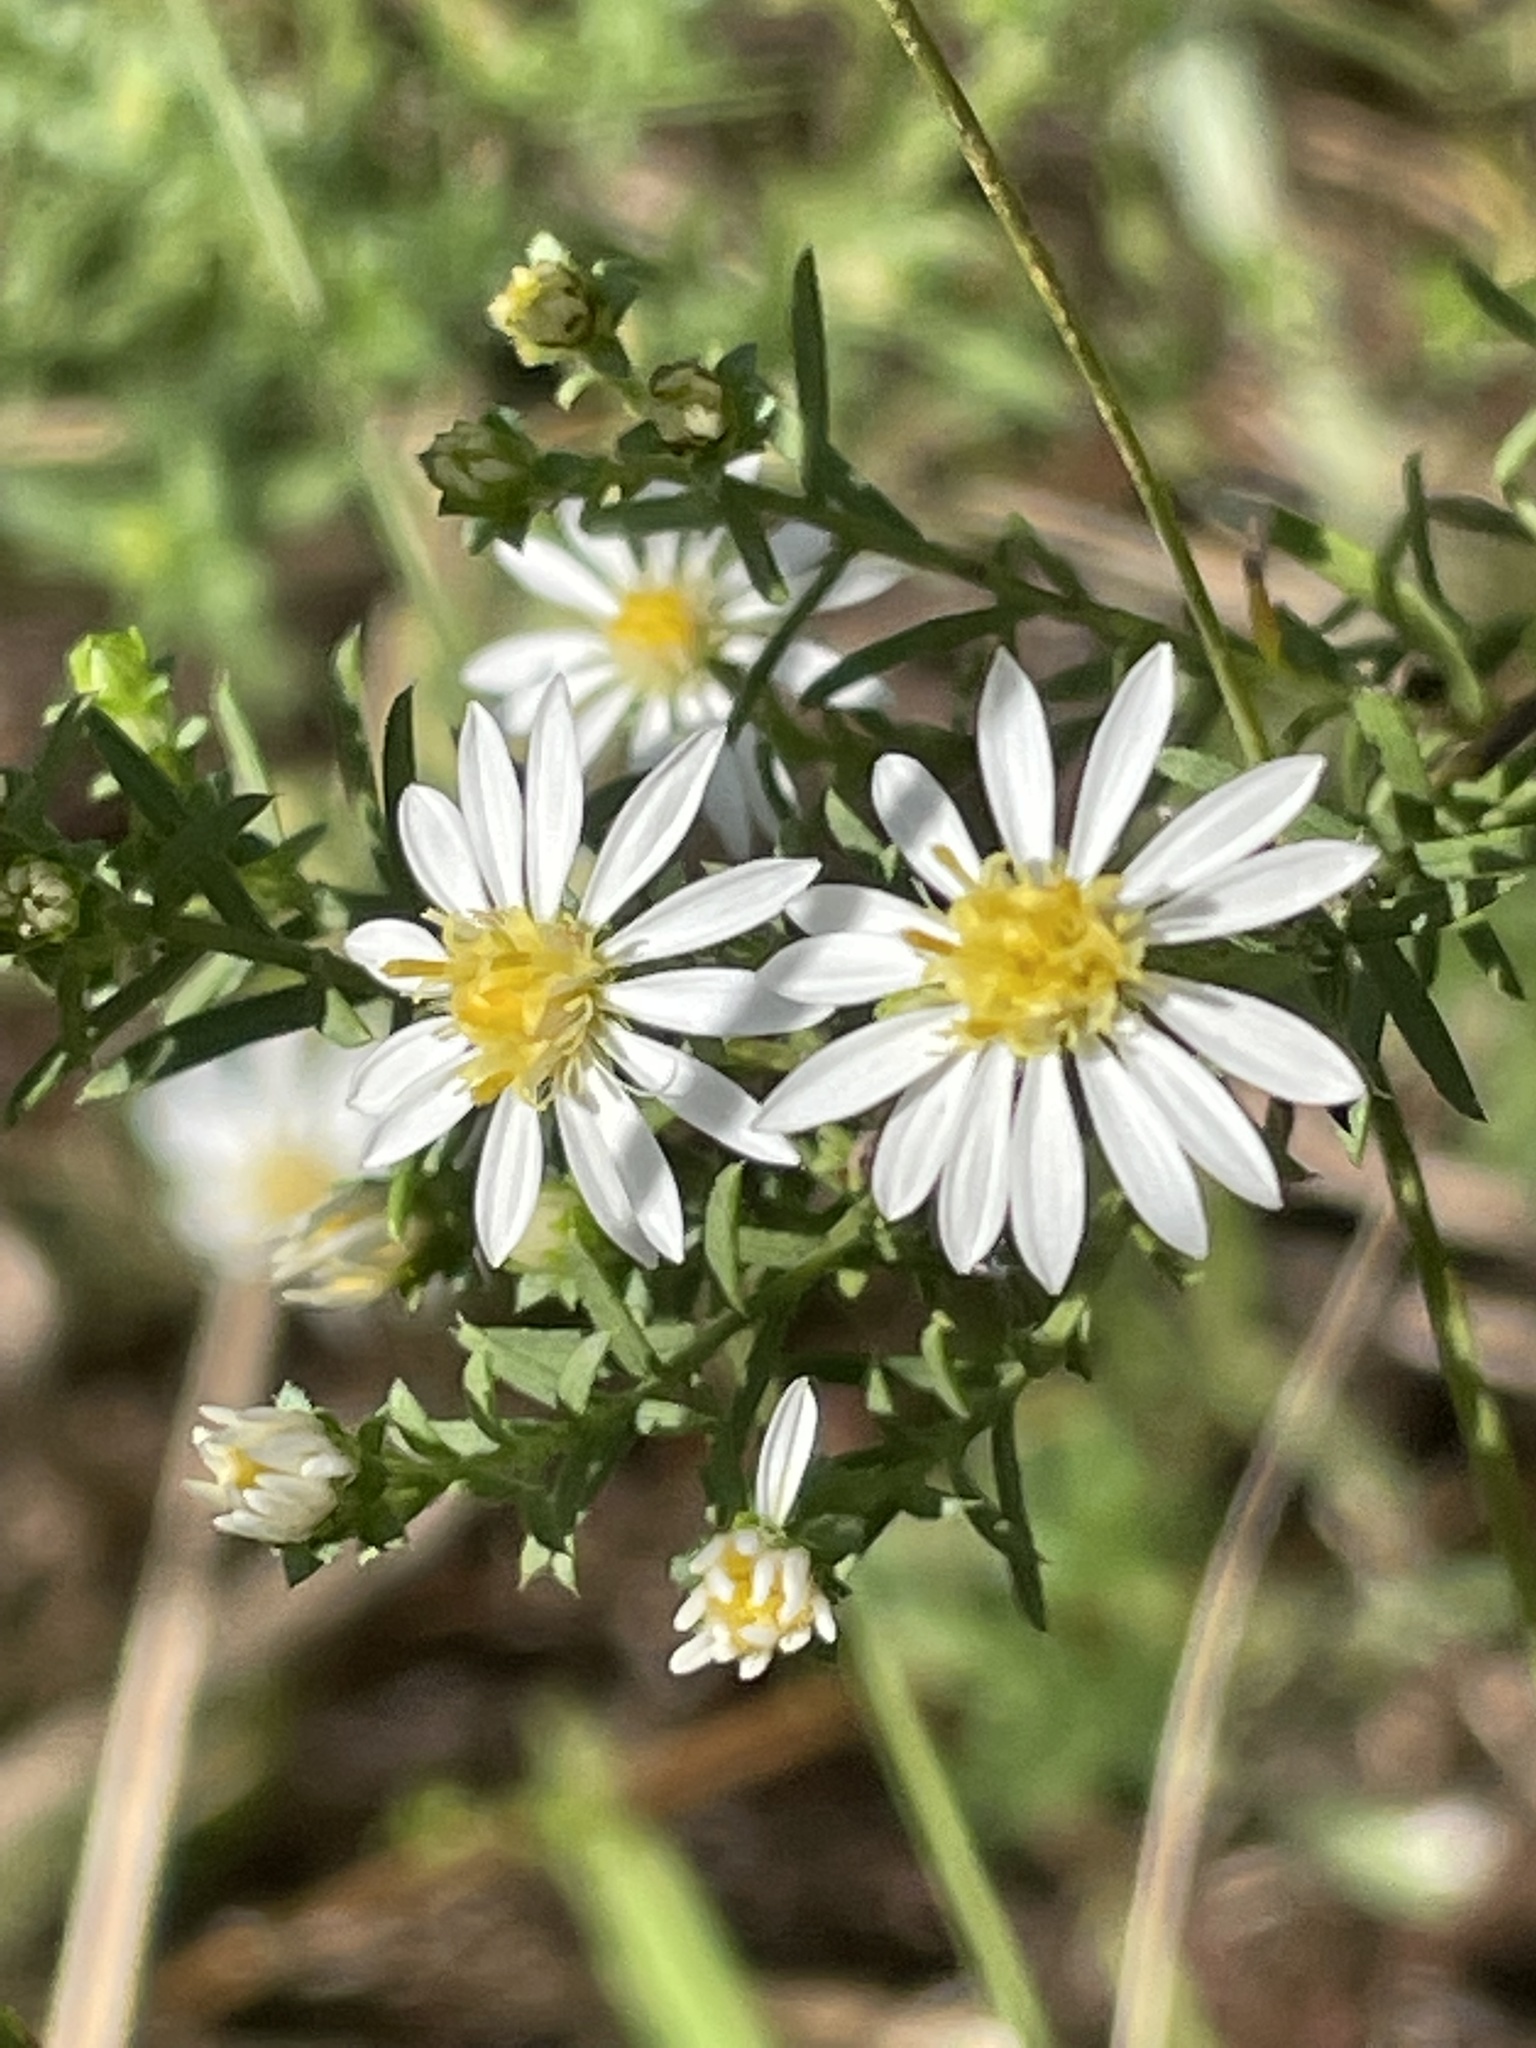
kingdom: Plantae
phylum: Tracheophyta
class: Magnoliopsida
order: Asterales
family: Asteraceae
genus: Symphyotrichum
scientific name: Symphyotrichum ericoides
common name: Heath aster
